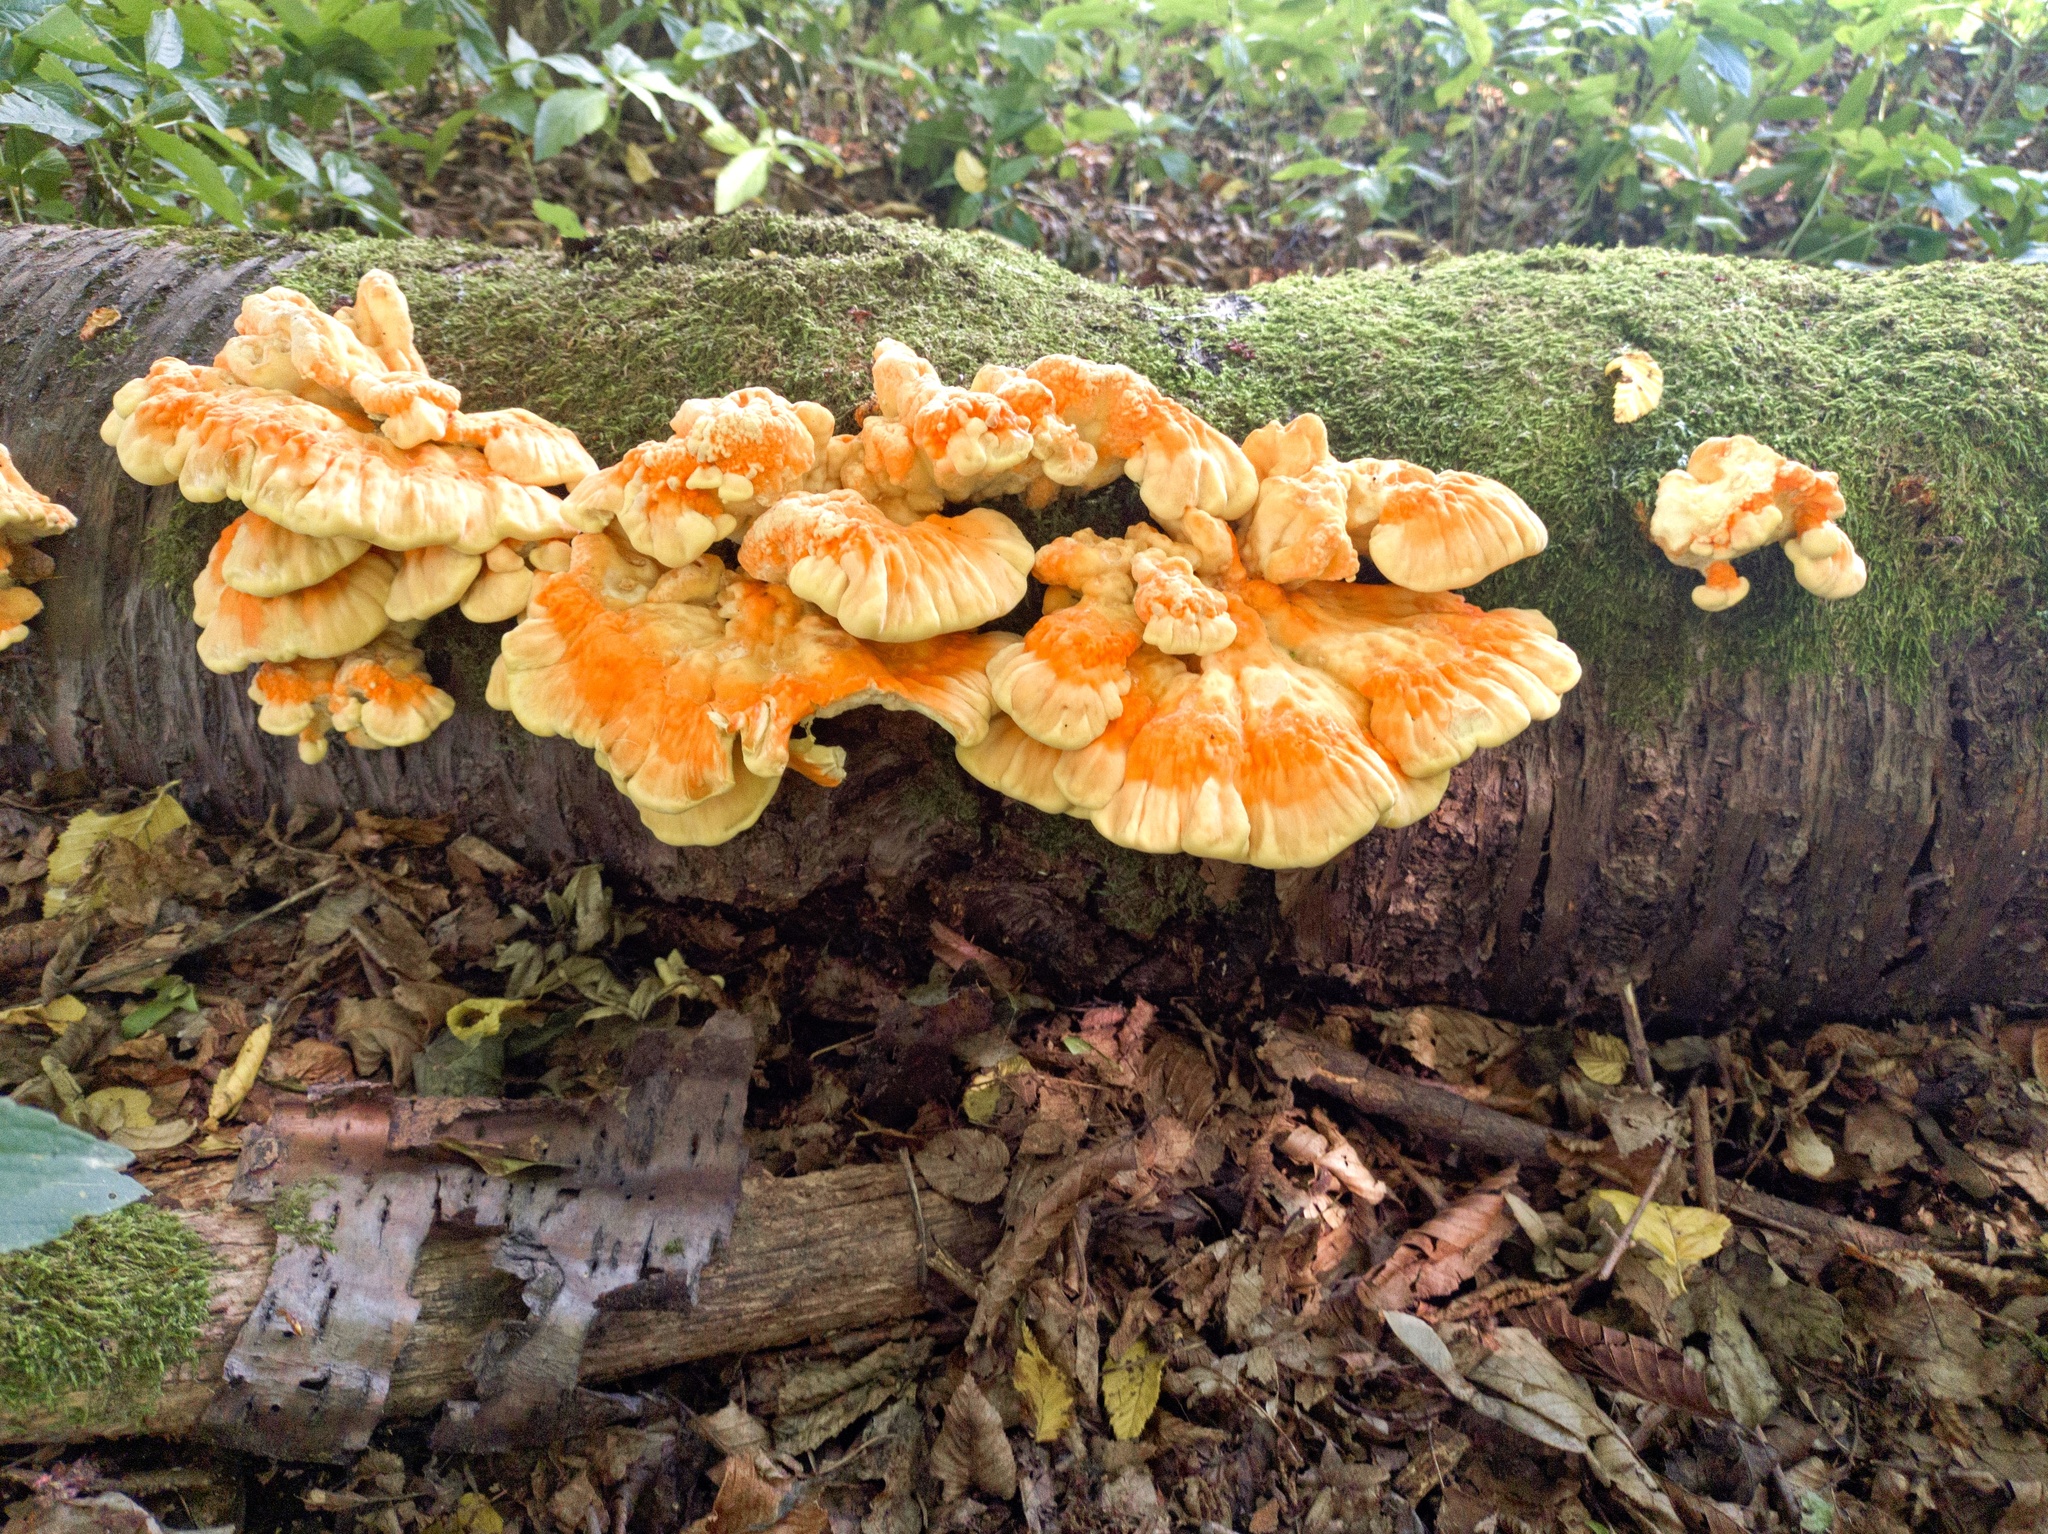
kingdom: Fungi
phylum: Basidiomycota
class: Agaricomycetes
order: Polyporales
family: Laetiporaceae
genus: Laetiporus
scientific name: Laetiporus sulphureus
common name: Chicken of the woods
